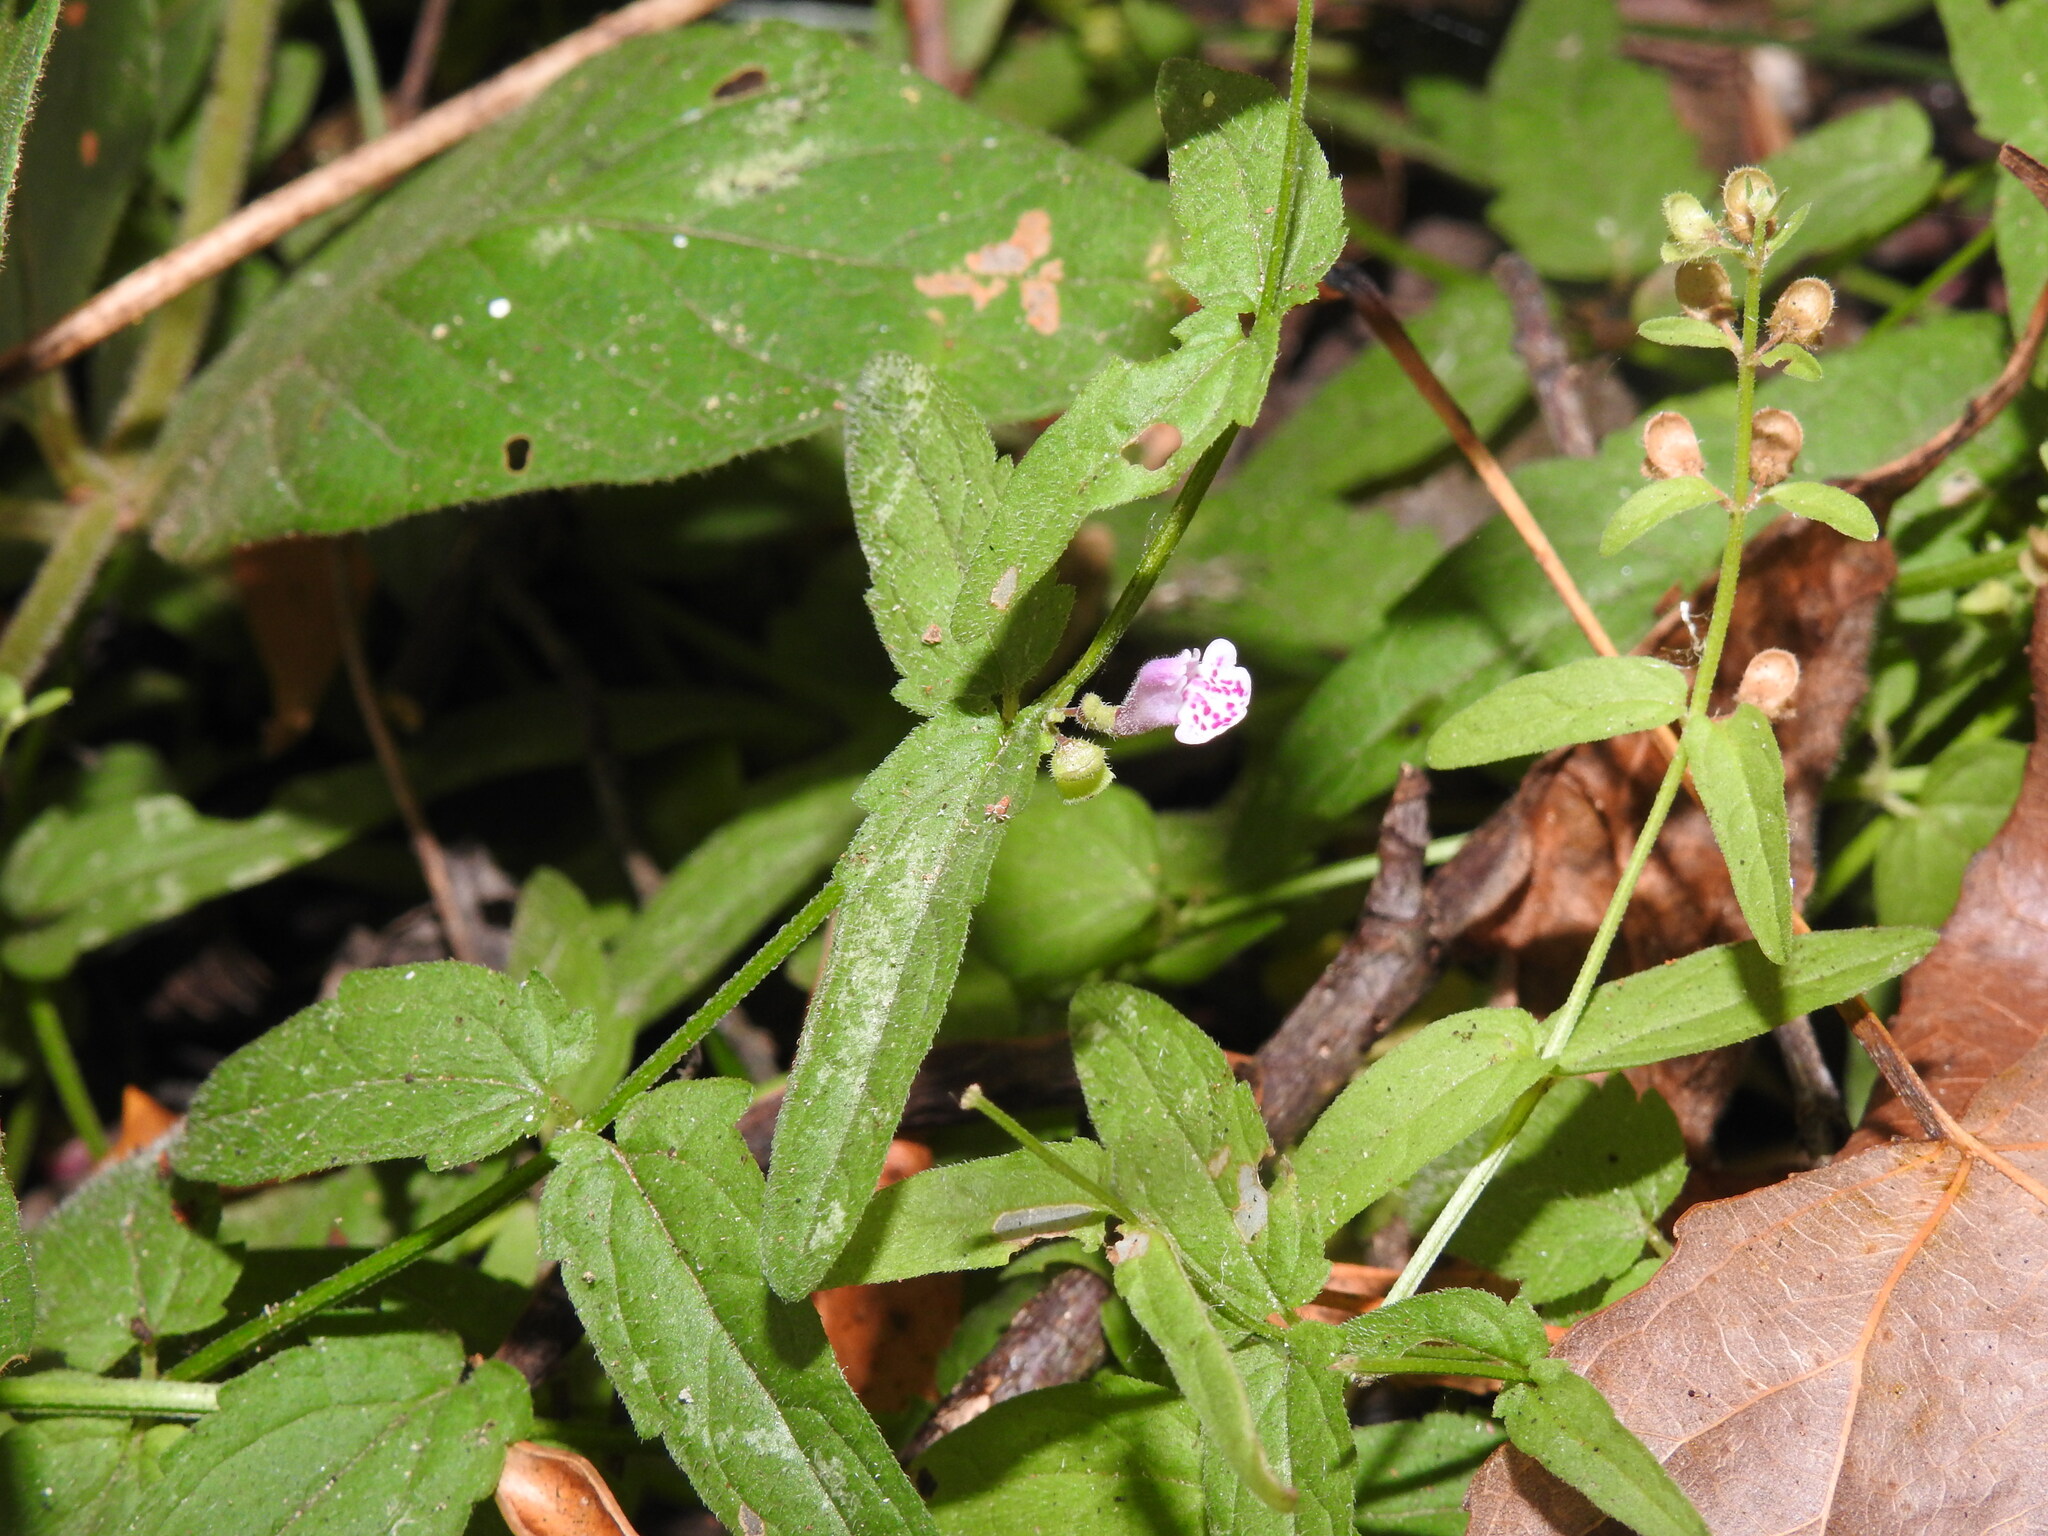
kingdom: Plantae
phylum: Tracheophyta
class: Magnoliopsida
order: Lamiales
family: Lamiaceae
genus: Scutellaria
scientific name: Scutellaria minor
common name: Lesser skullcap
